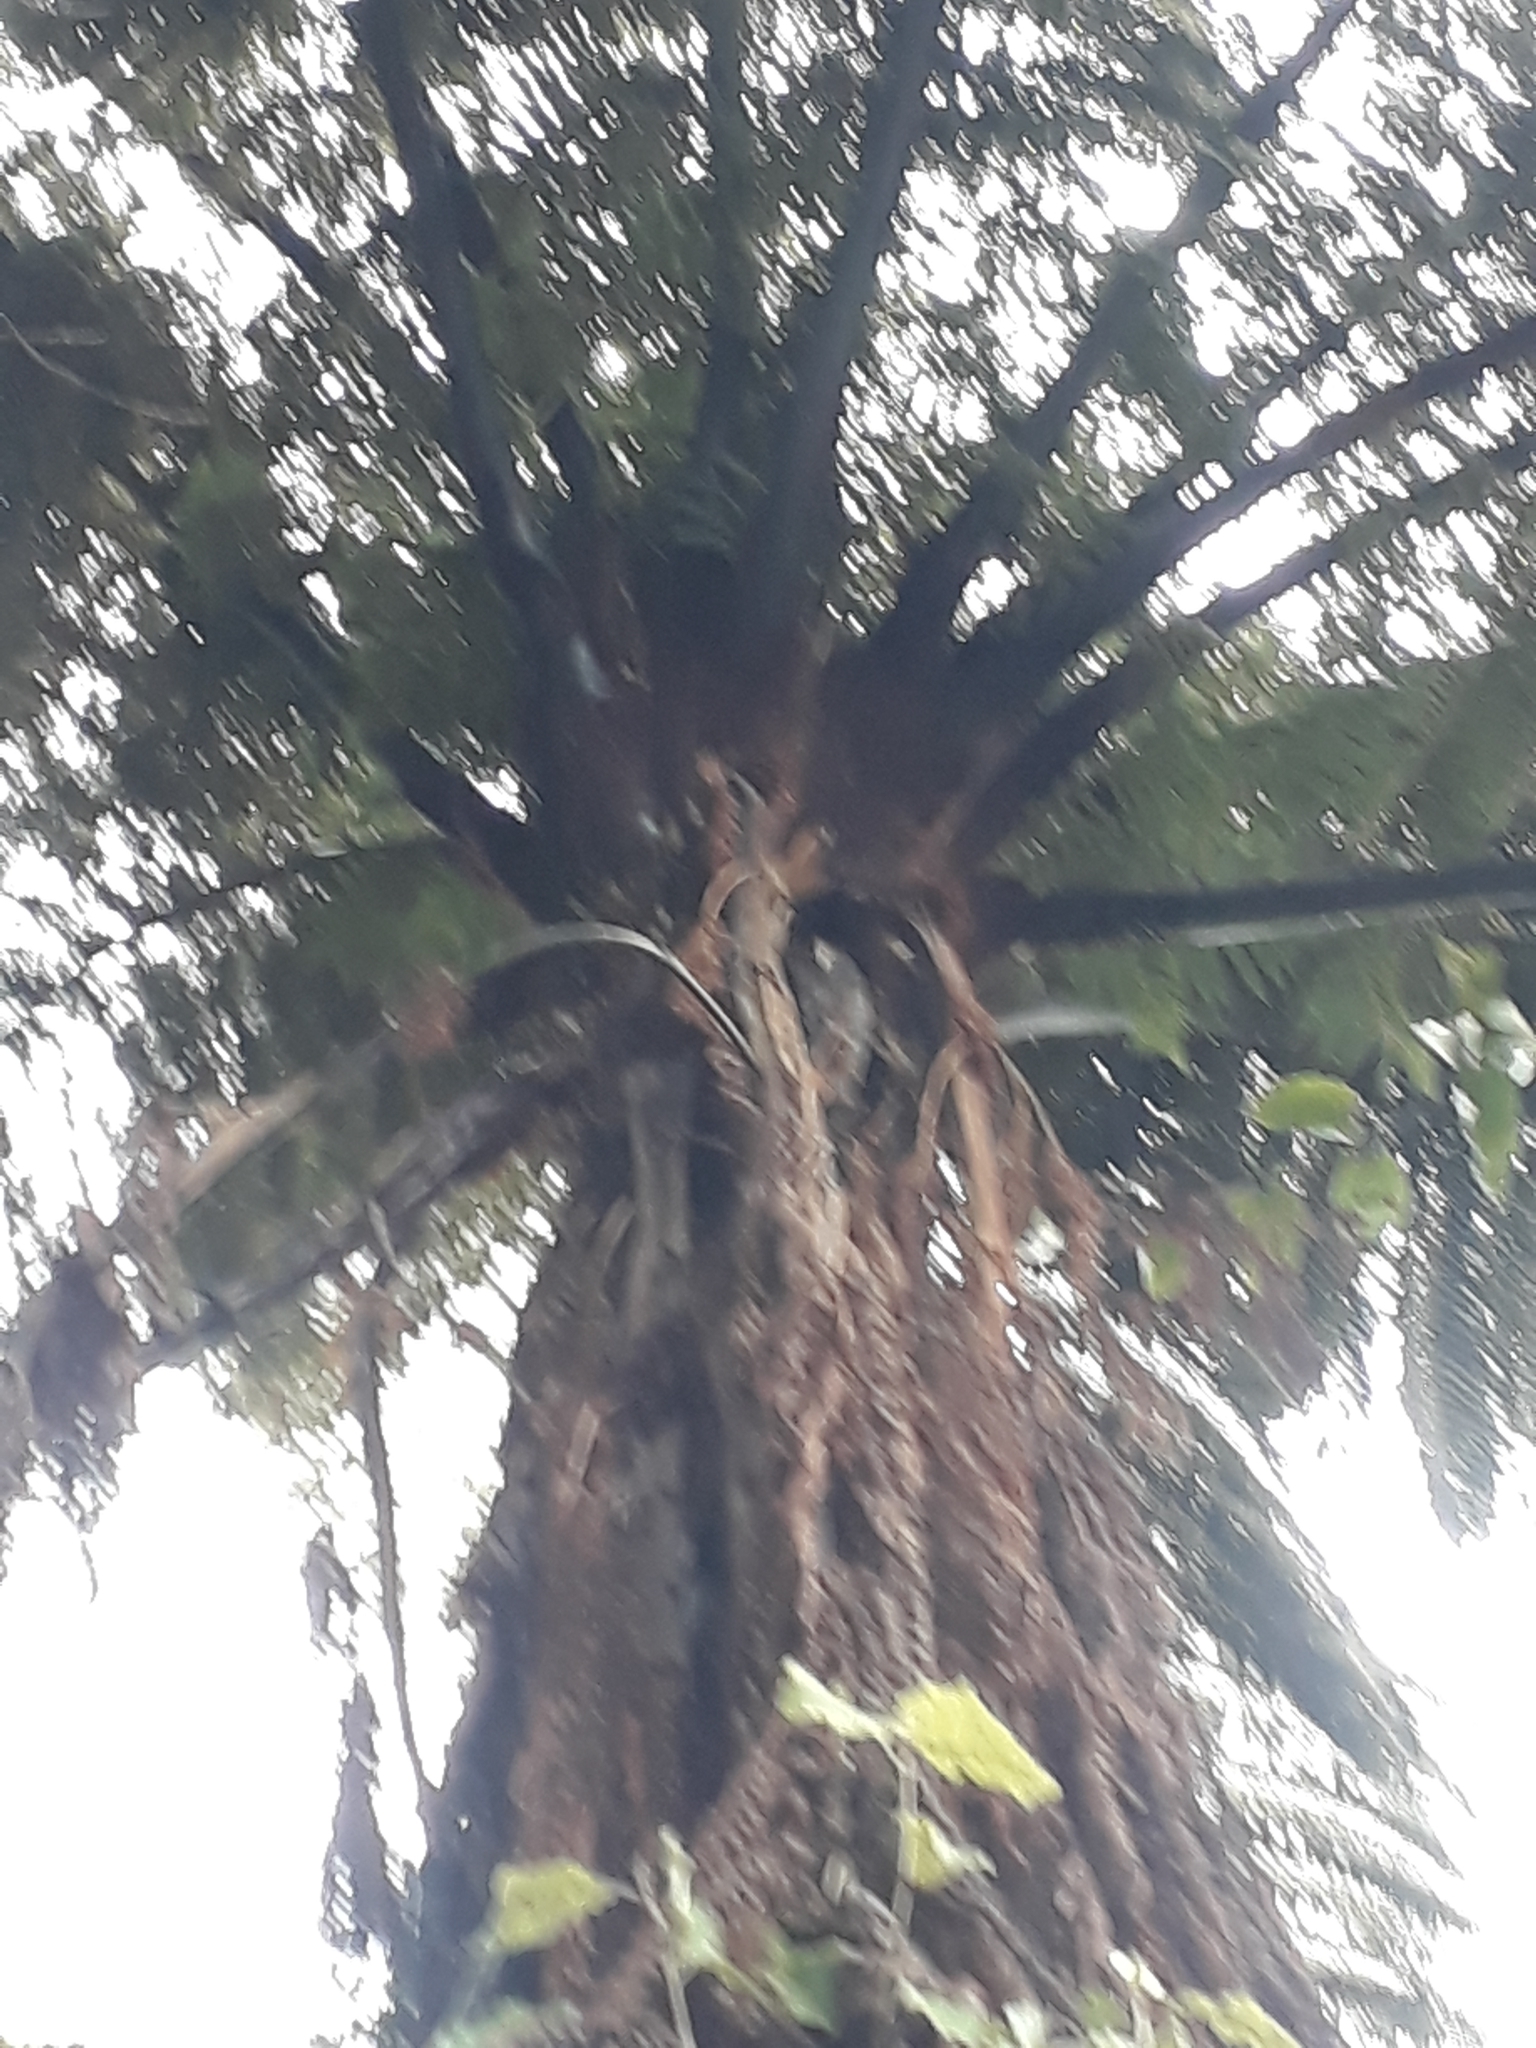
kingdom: Plantae
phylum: Tracheophyta
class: Polypodiopsida
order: Cyatheales
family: Cyatheaceae
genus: Sphaeropteris
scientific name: Sphaeropteris medullaris
